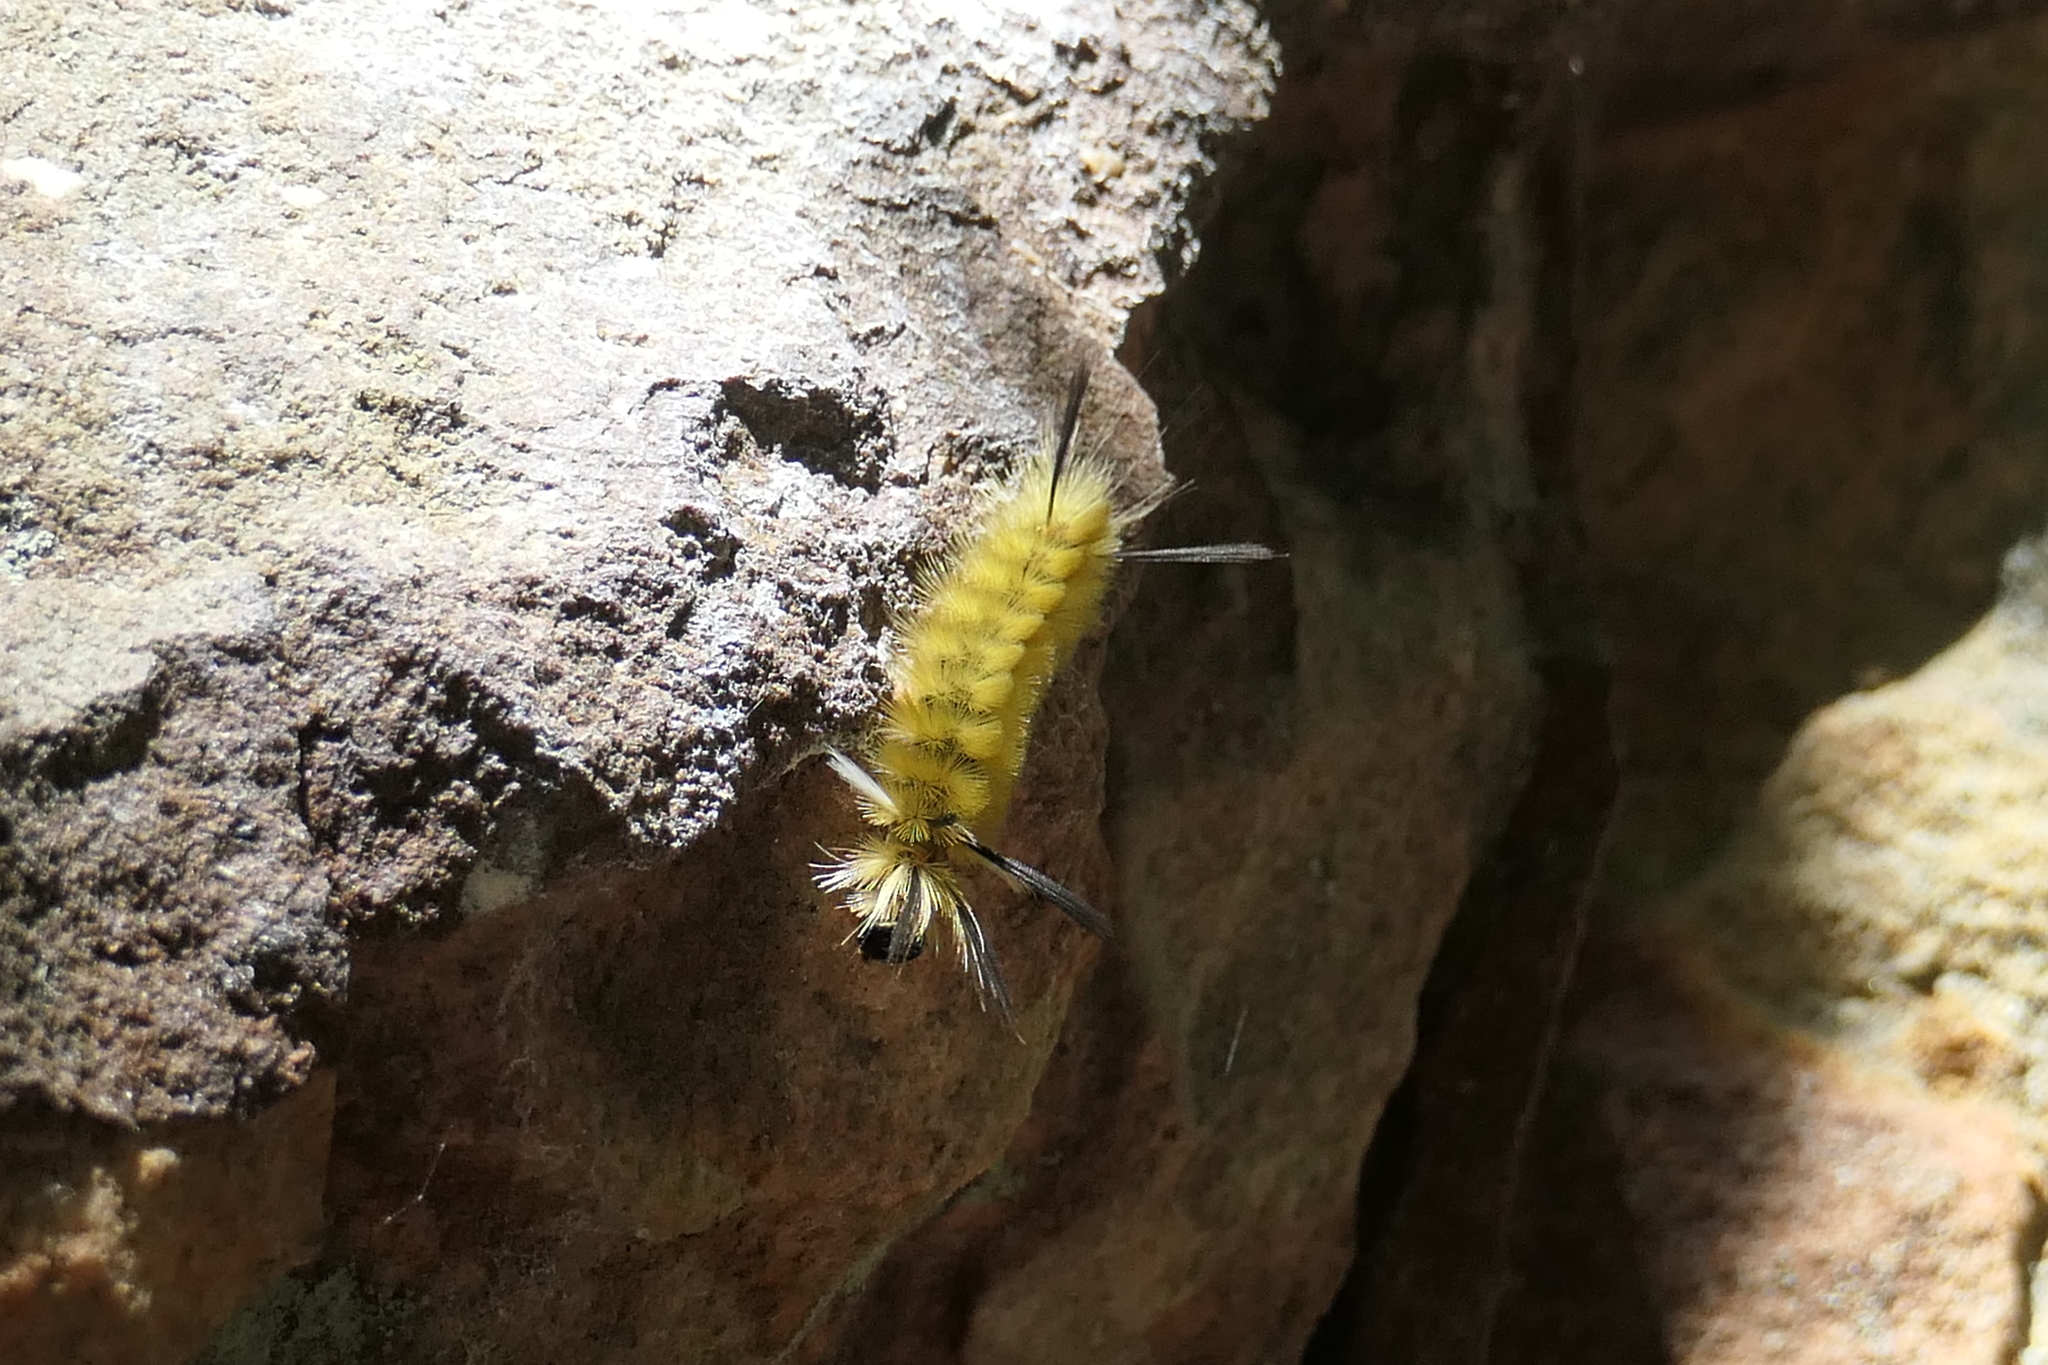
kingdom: Animalia
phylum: Arthropoda
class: Insecta
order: Lepidoptera
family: Erebidae
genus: Halysidota
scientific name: Halysidota tessellaris
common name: Banded tussock moth
